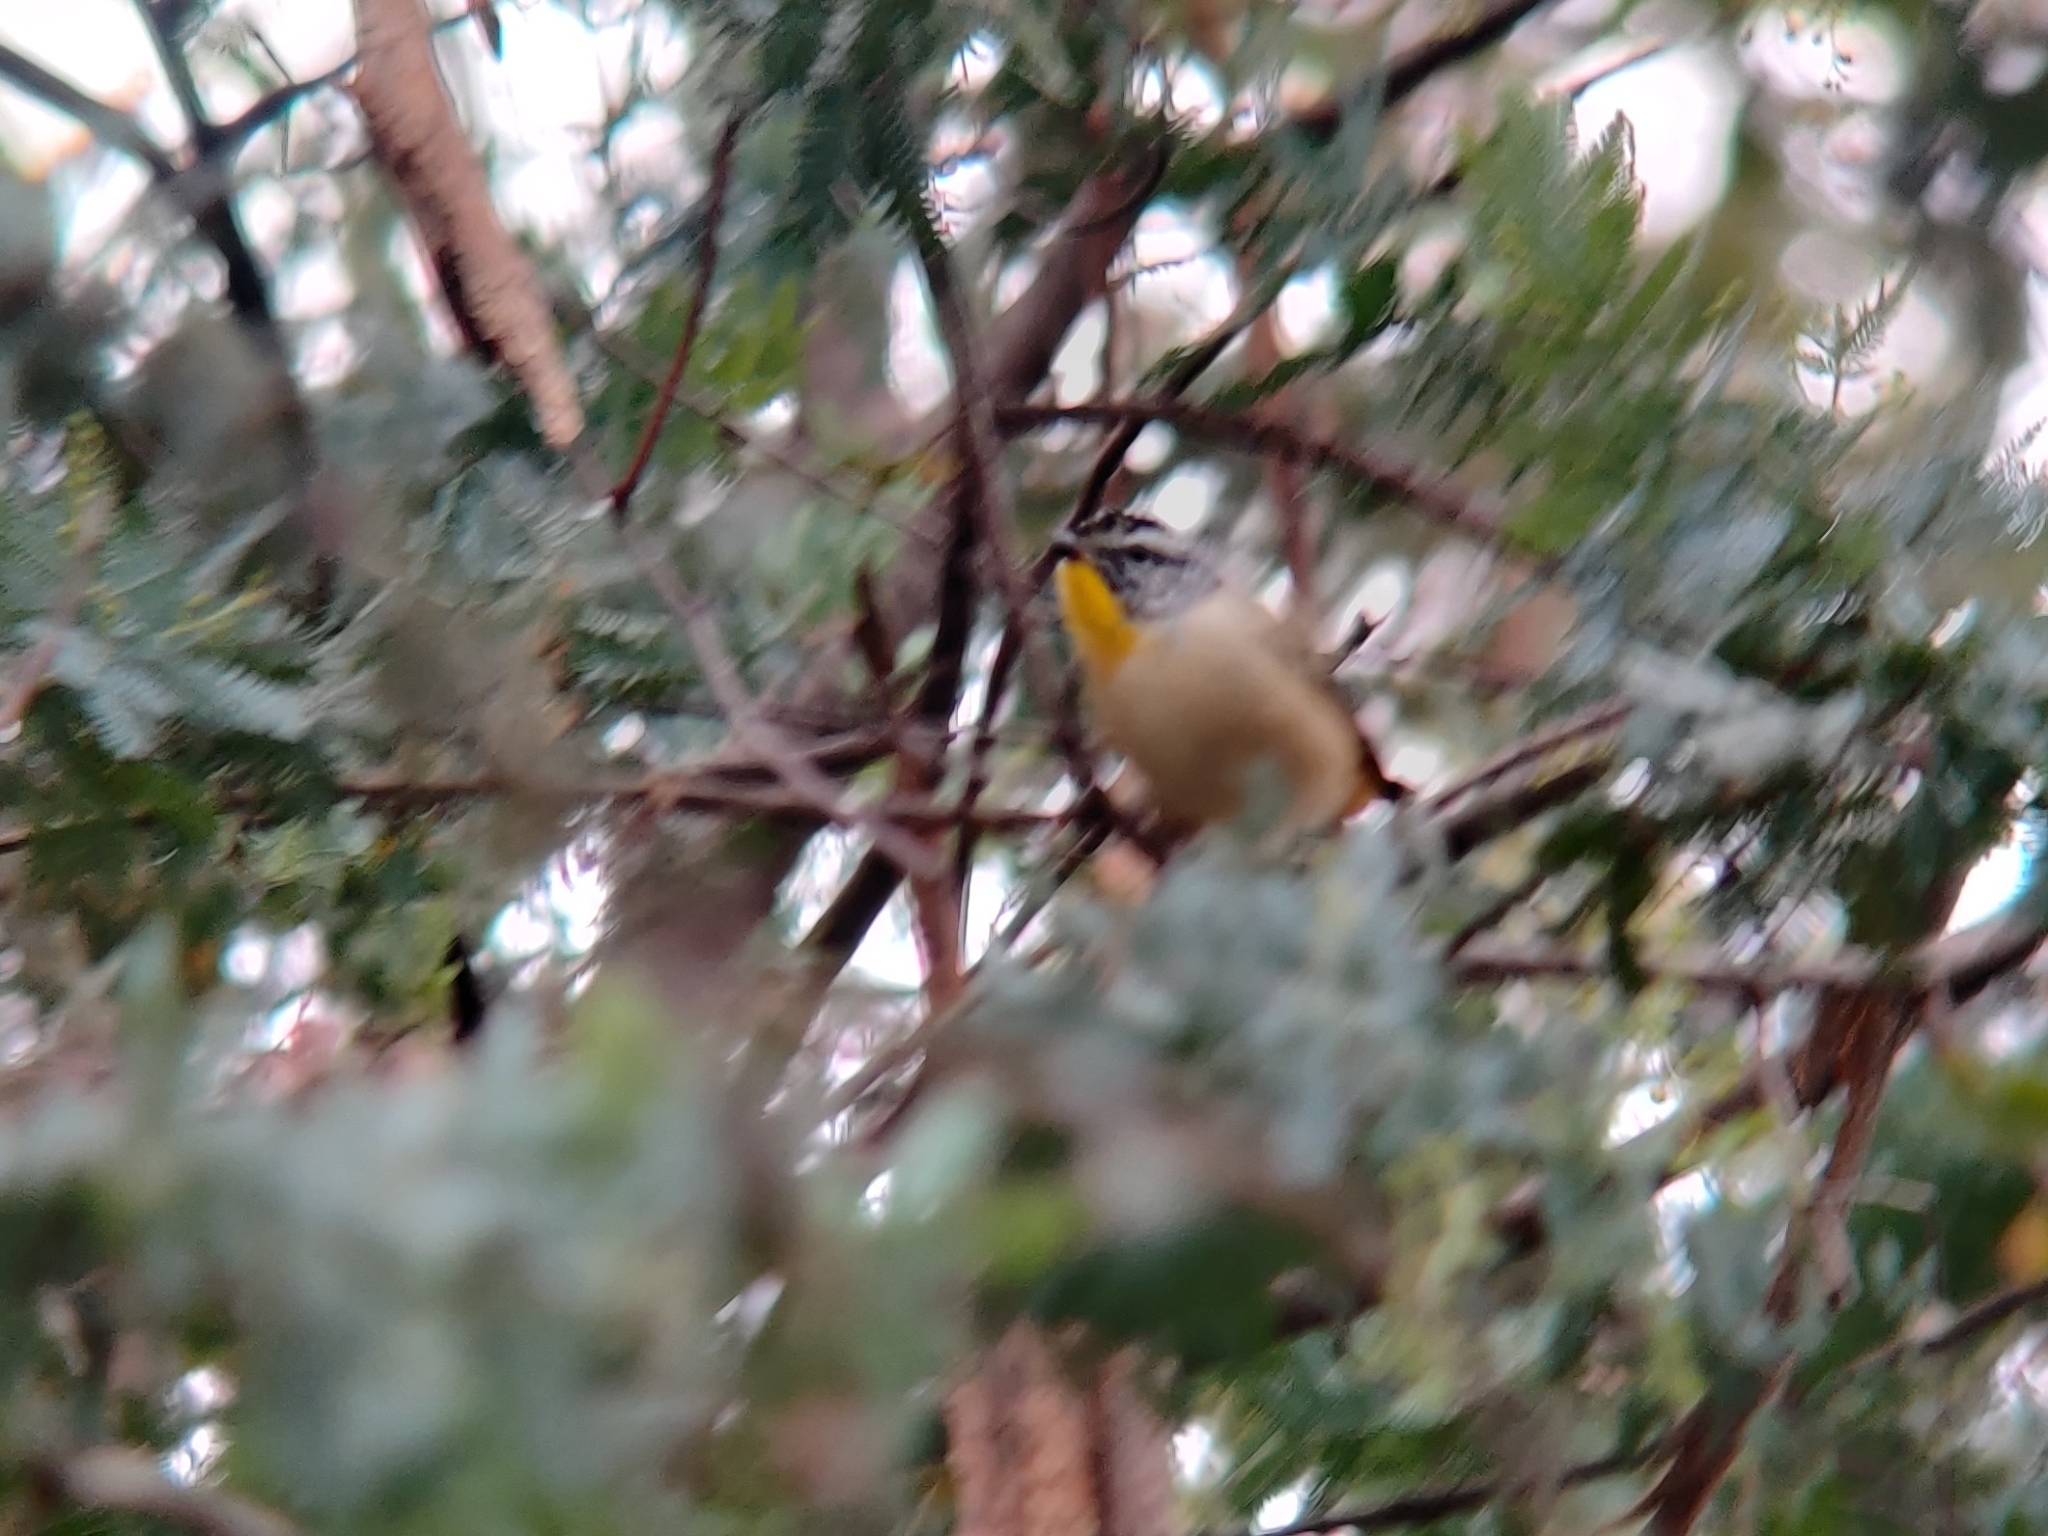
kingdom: Animalia
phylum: Chordata
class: Aves
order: Passeriformes
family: Pardalotidae
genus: Pardalotus
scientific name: Pardalotus punctatus
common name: Spotted pardalote
